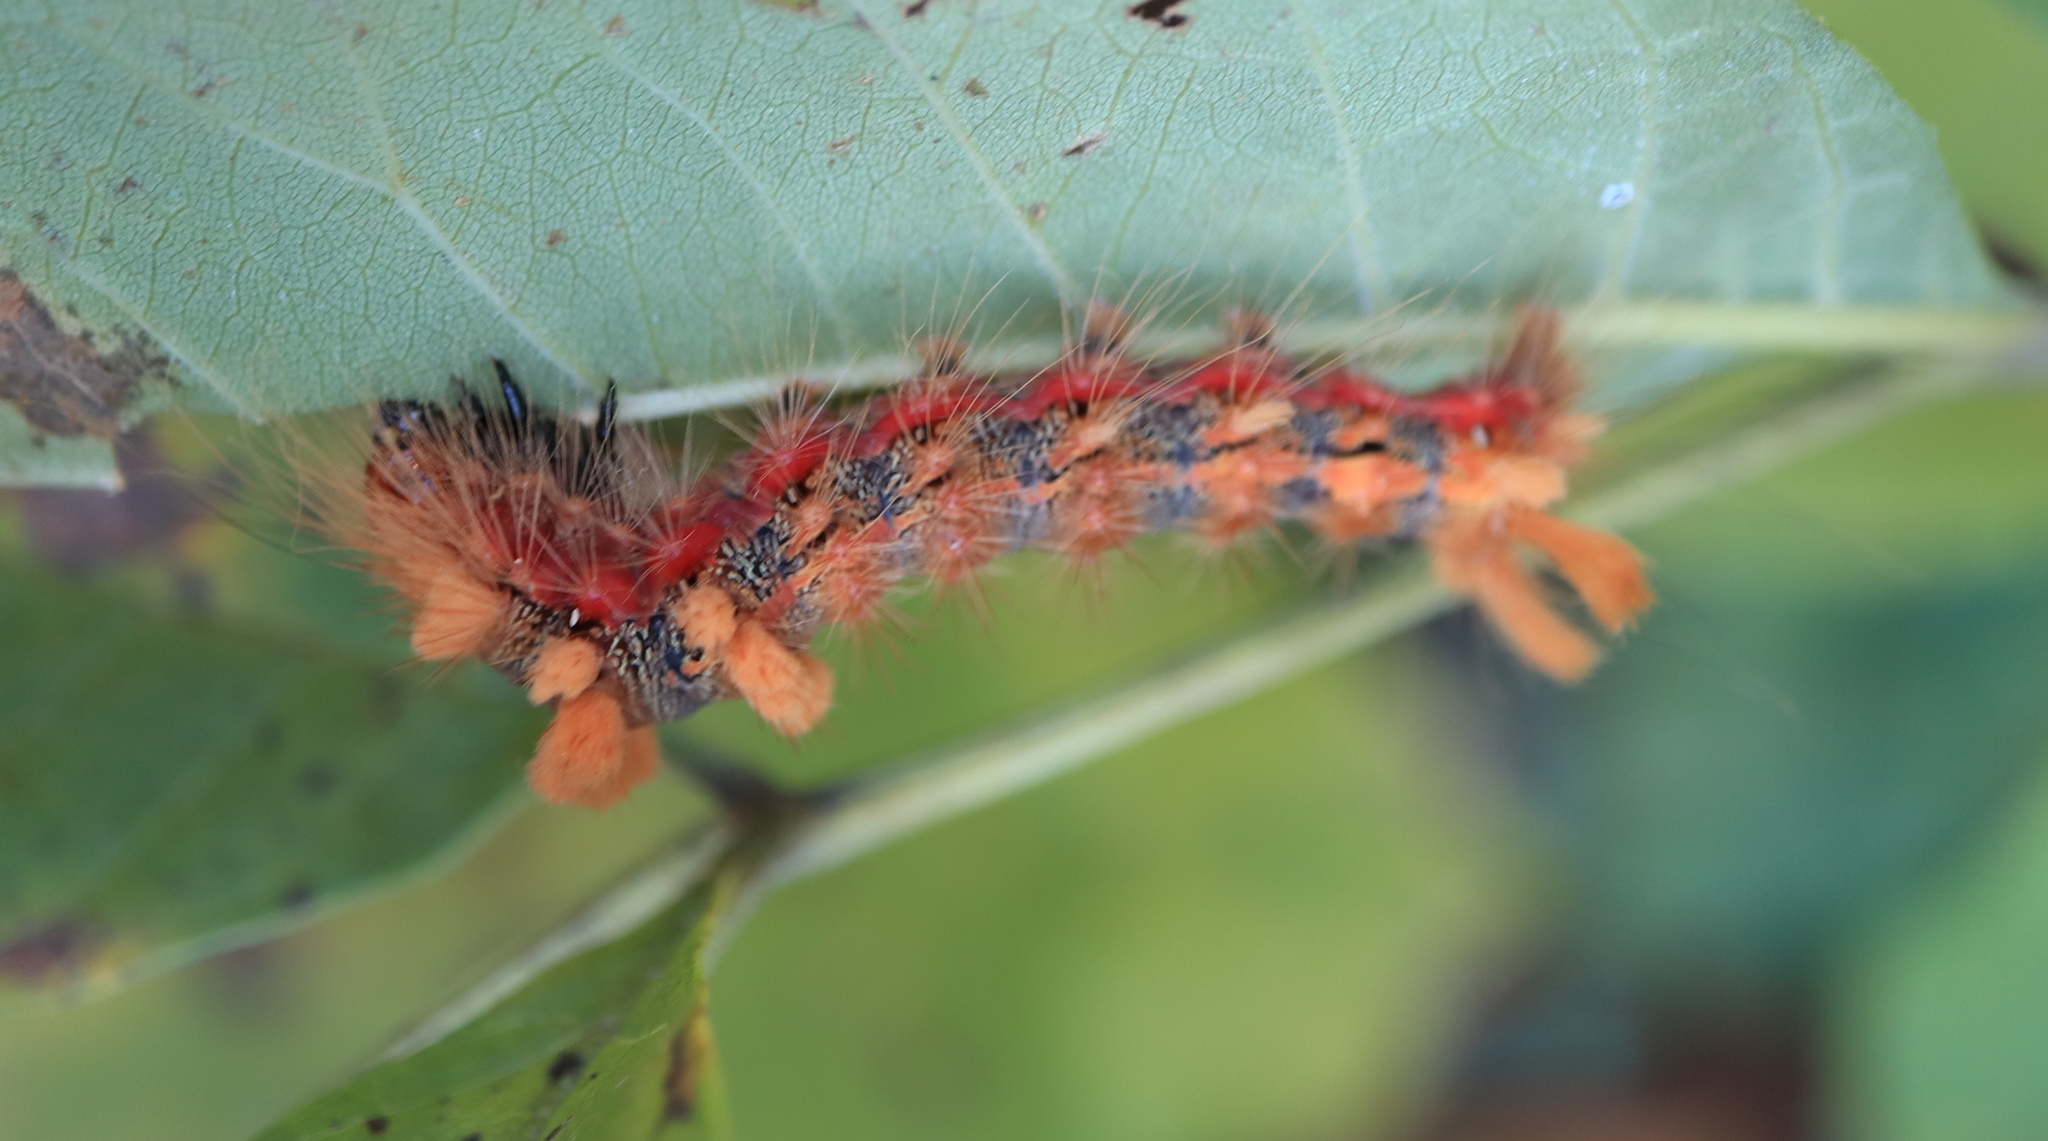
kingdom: Animalia
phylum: Arthropoda
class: Insecta
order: Lepidoptera
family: Noctuidae
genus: Acronicta
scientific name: Acronicta impleta
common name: Powdered dagger
